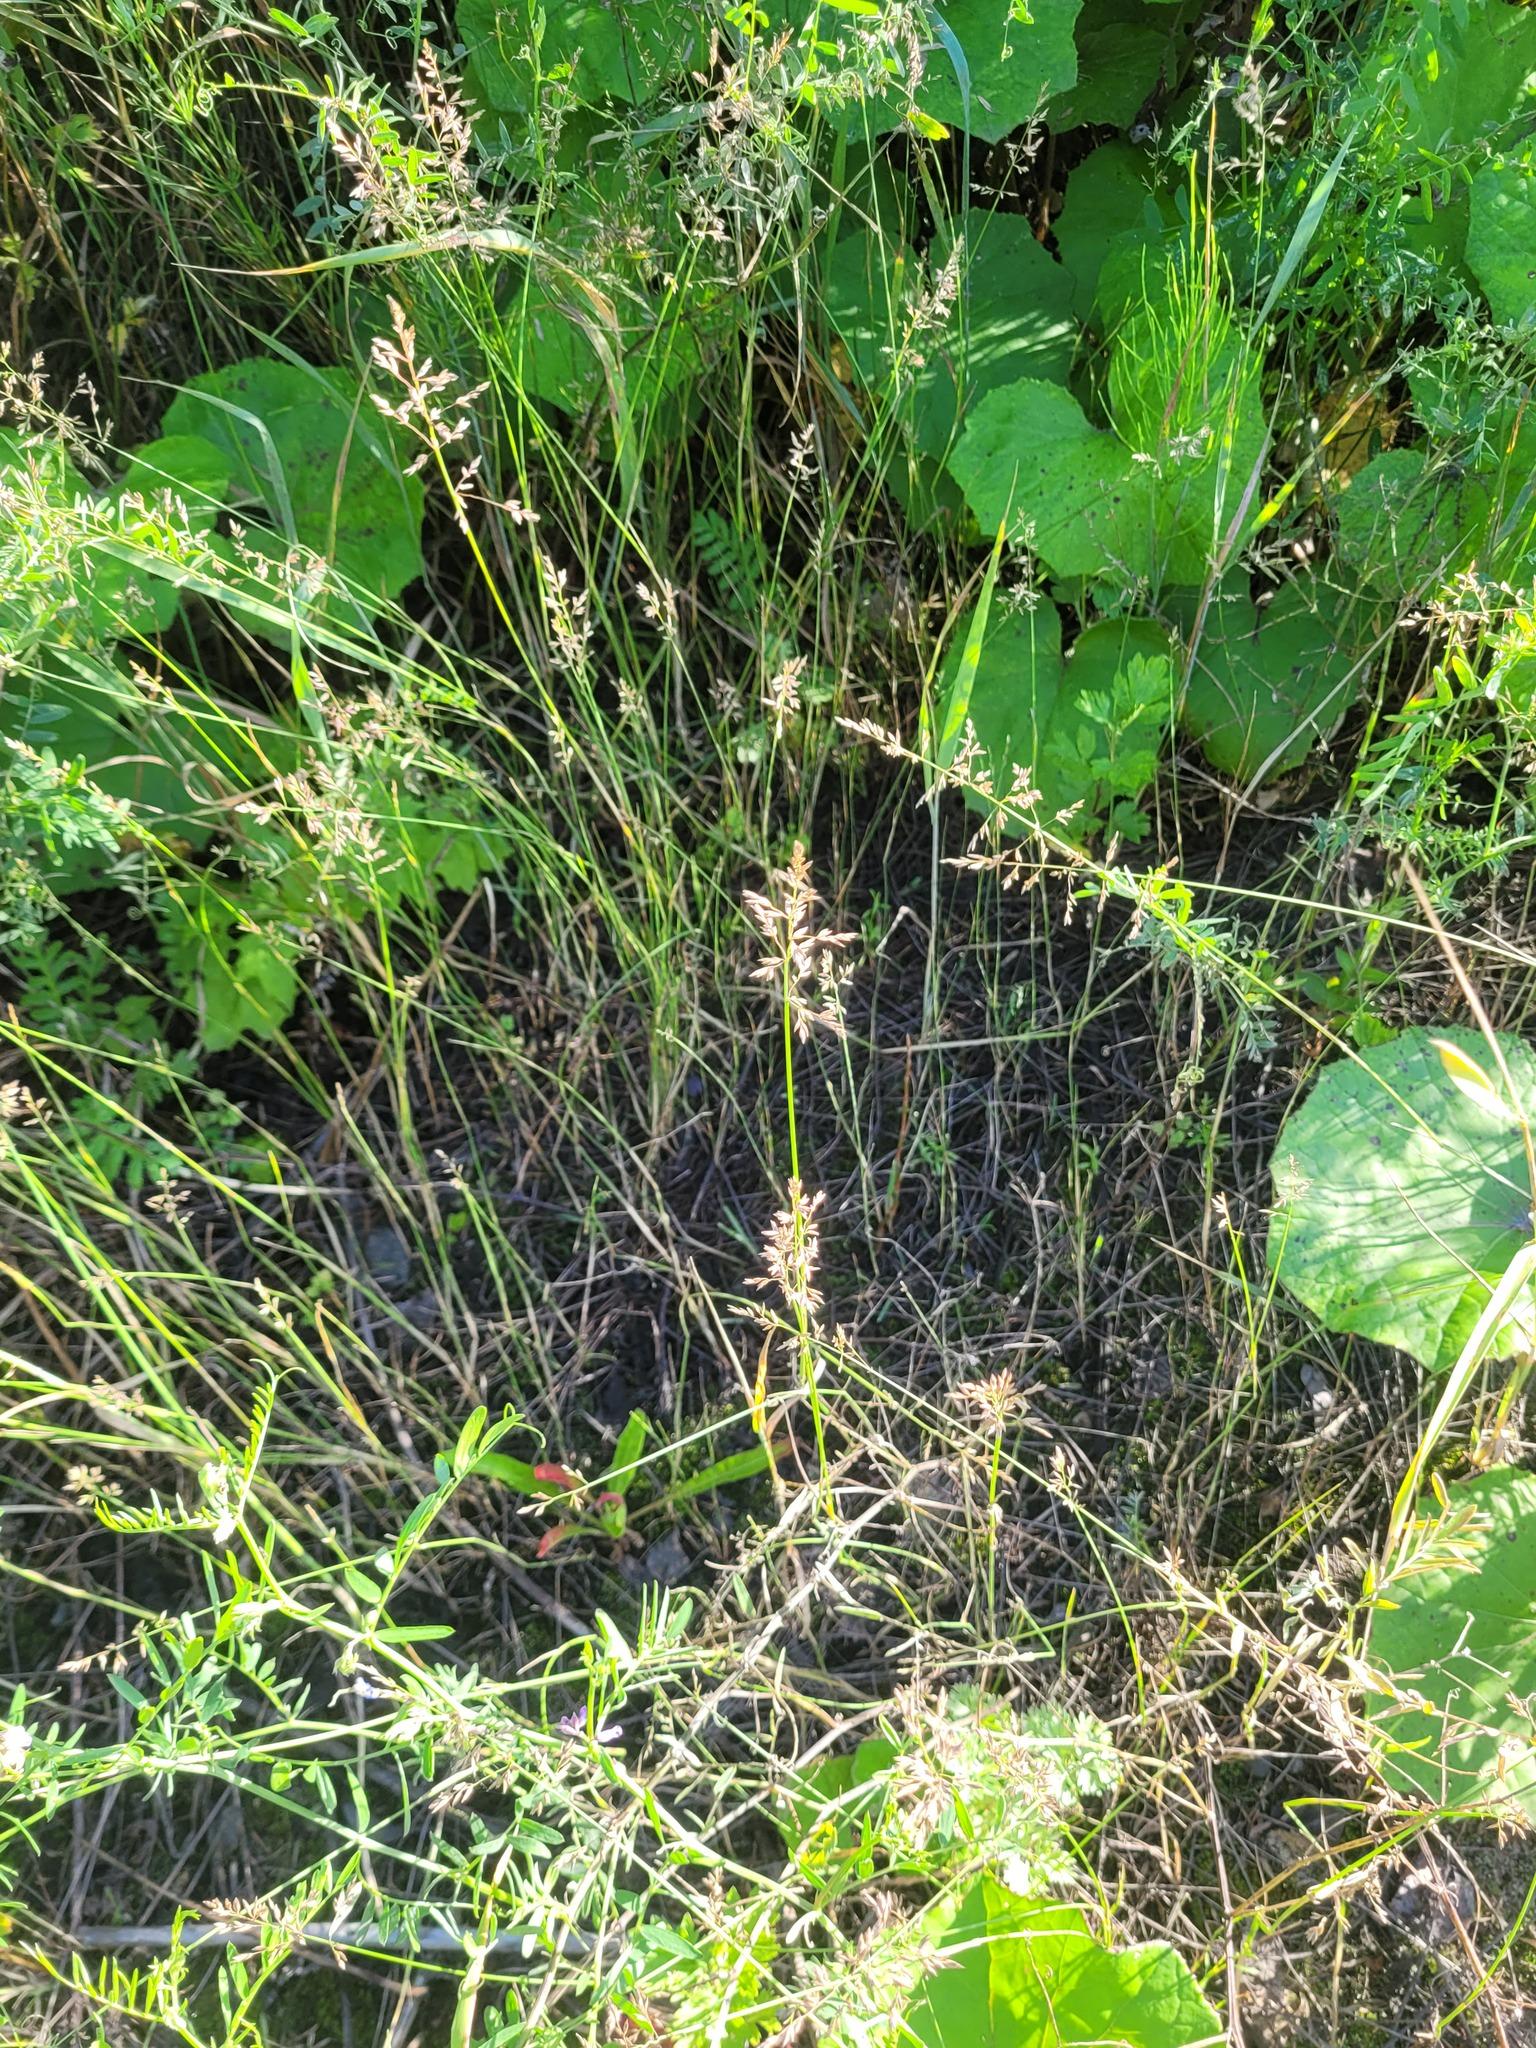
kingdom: Plantae
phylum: Tracheophyta
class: Liliopsida
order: Poales
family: Poaceae
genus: Poa
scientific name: Poa compressa
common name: Canada bluegrass
